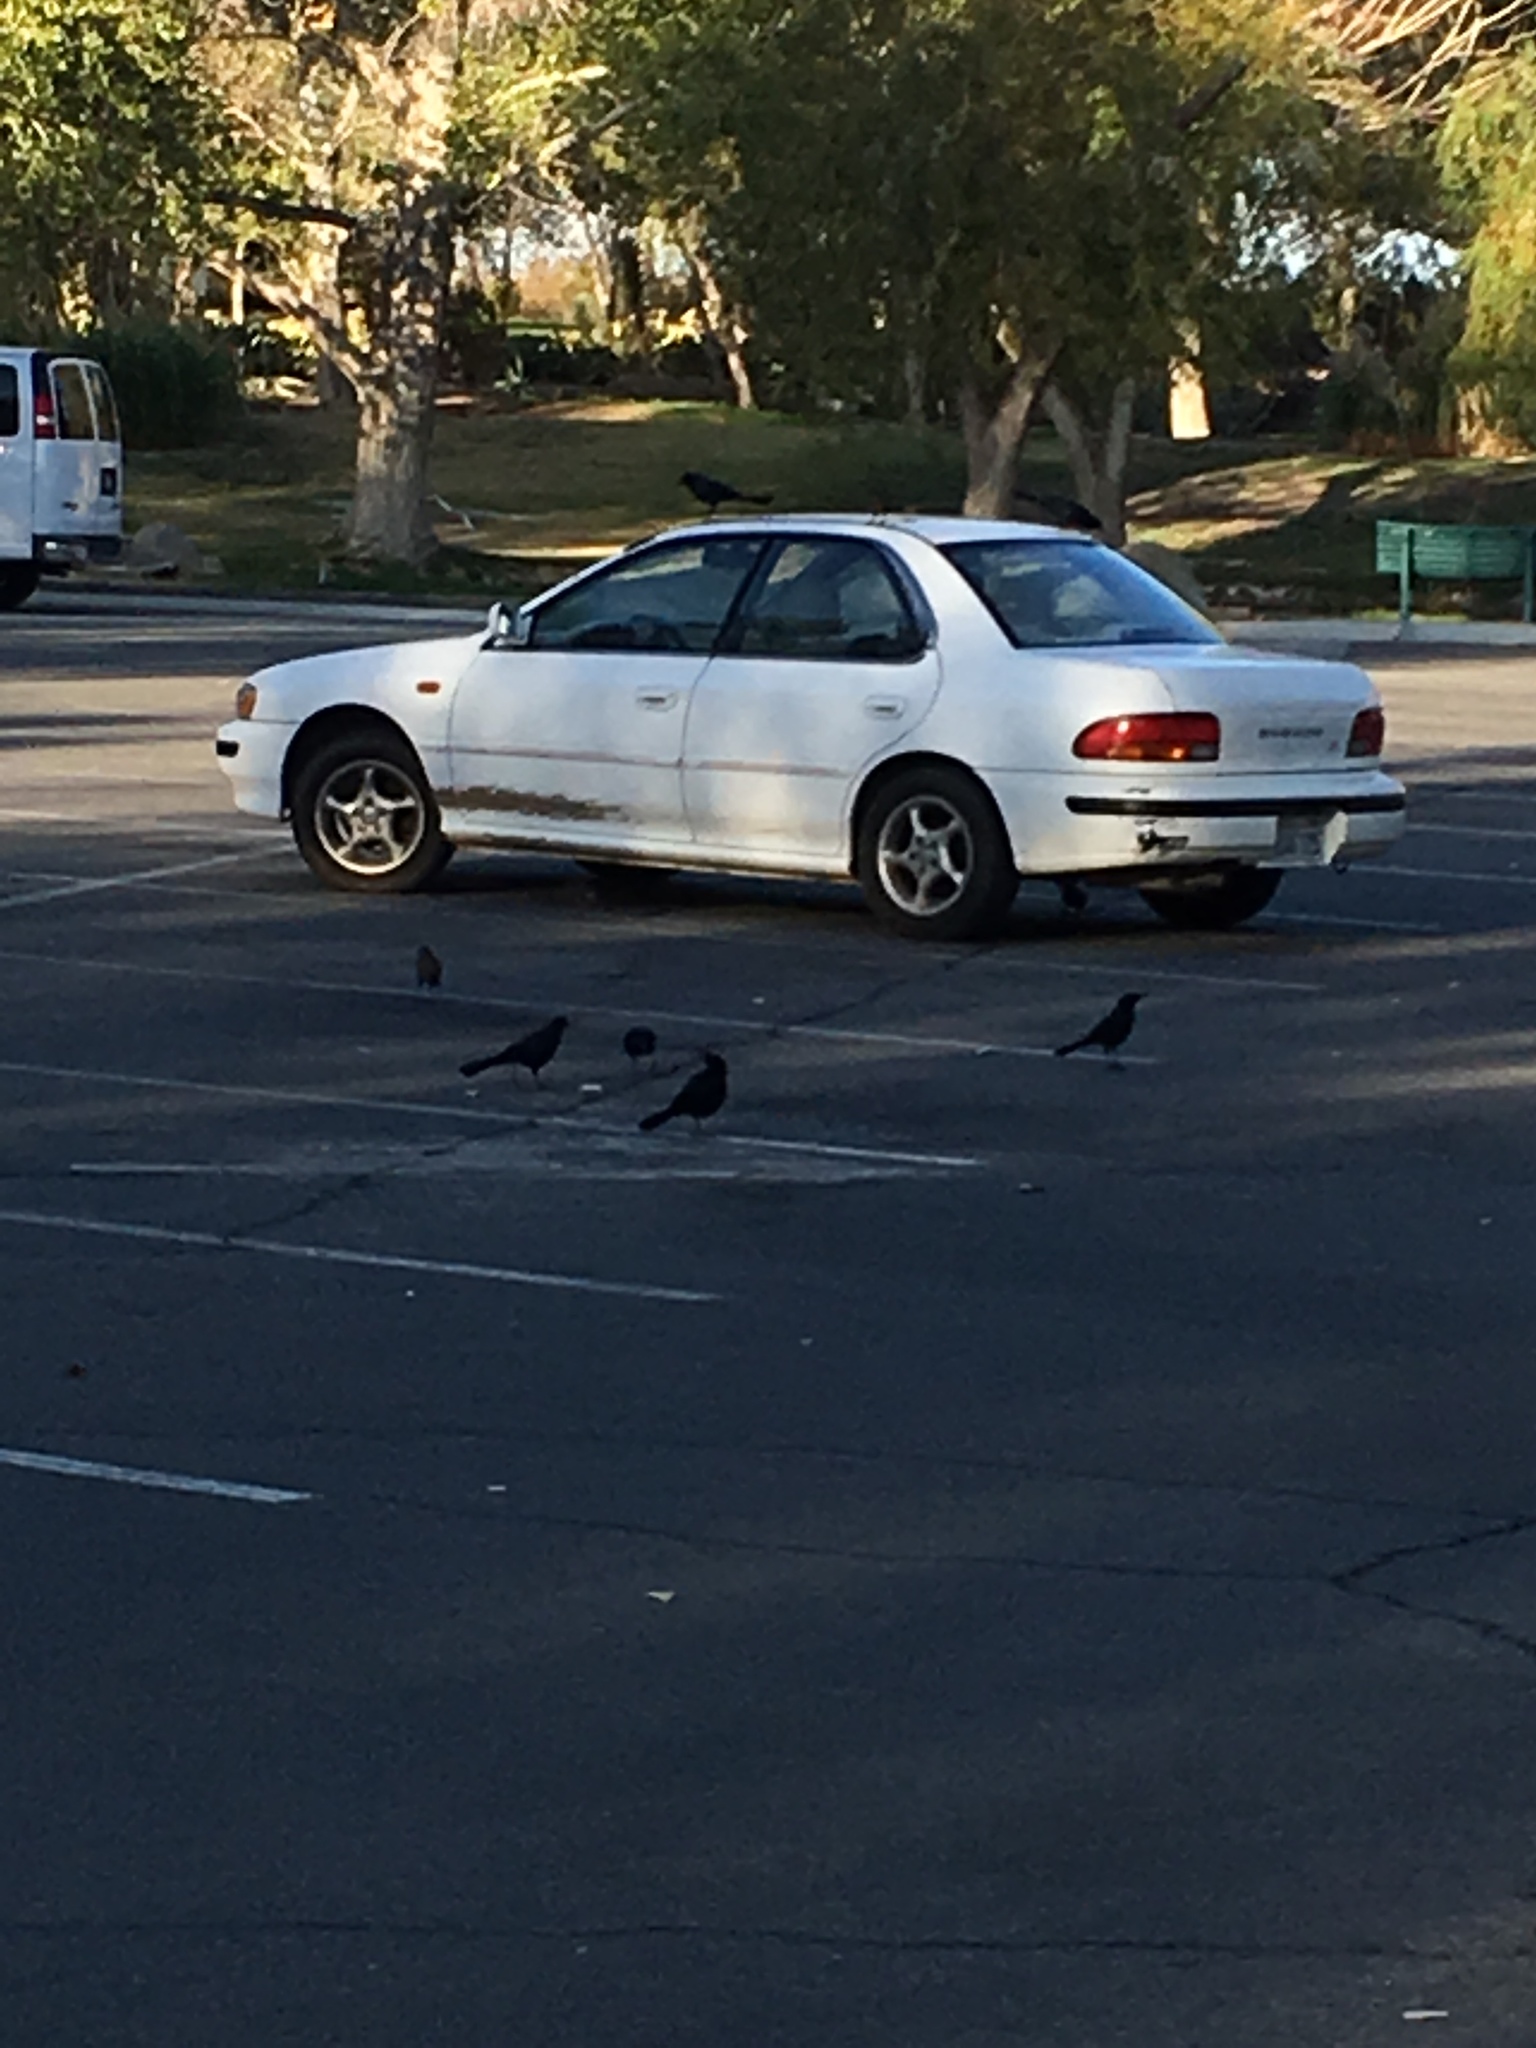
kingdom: Animalia
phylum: Chordata
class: Aves
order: Passeriformes
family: Icteridae
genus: Quiscalus
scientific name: Quiscalus mexicanus
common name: Great-tailed grackle
